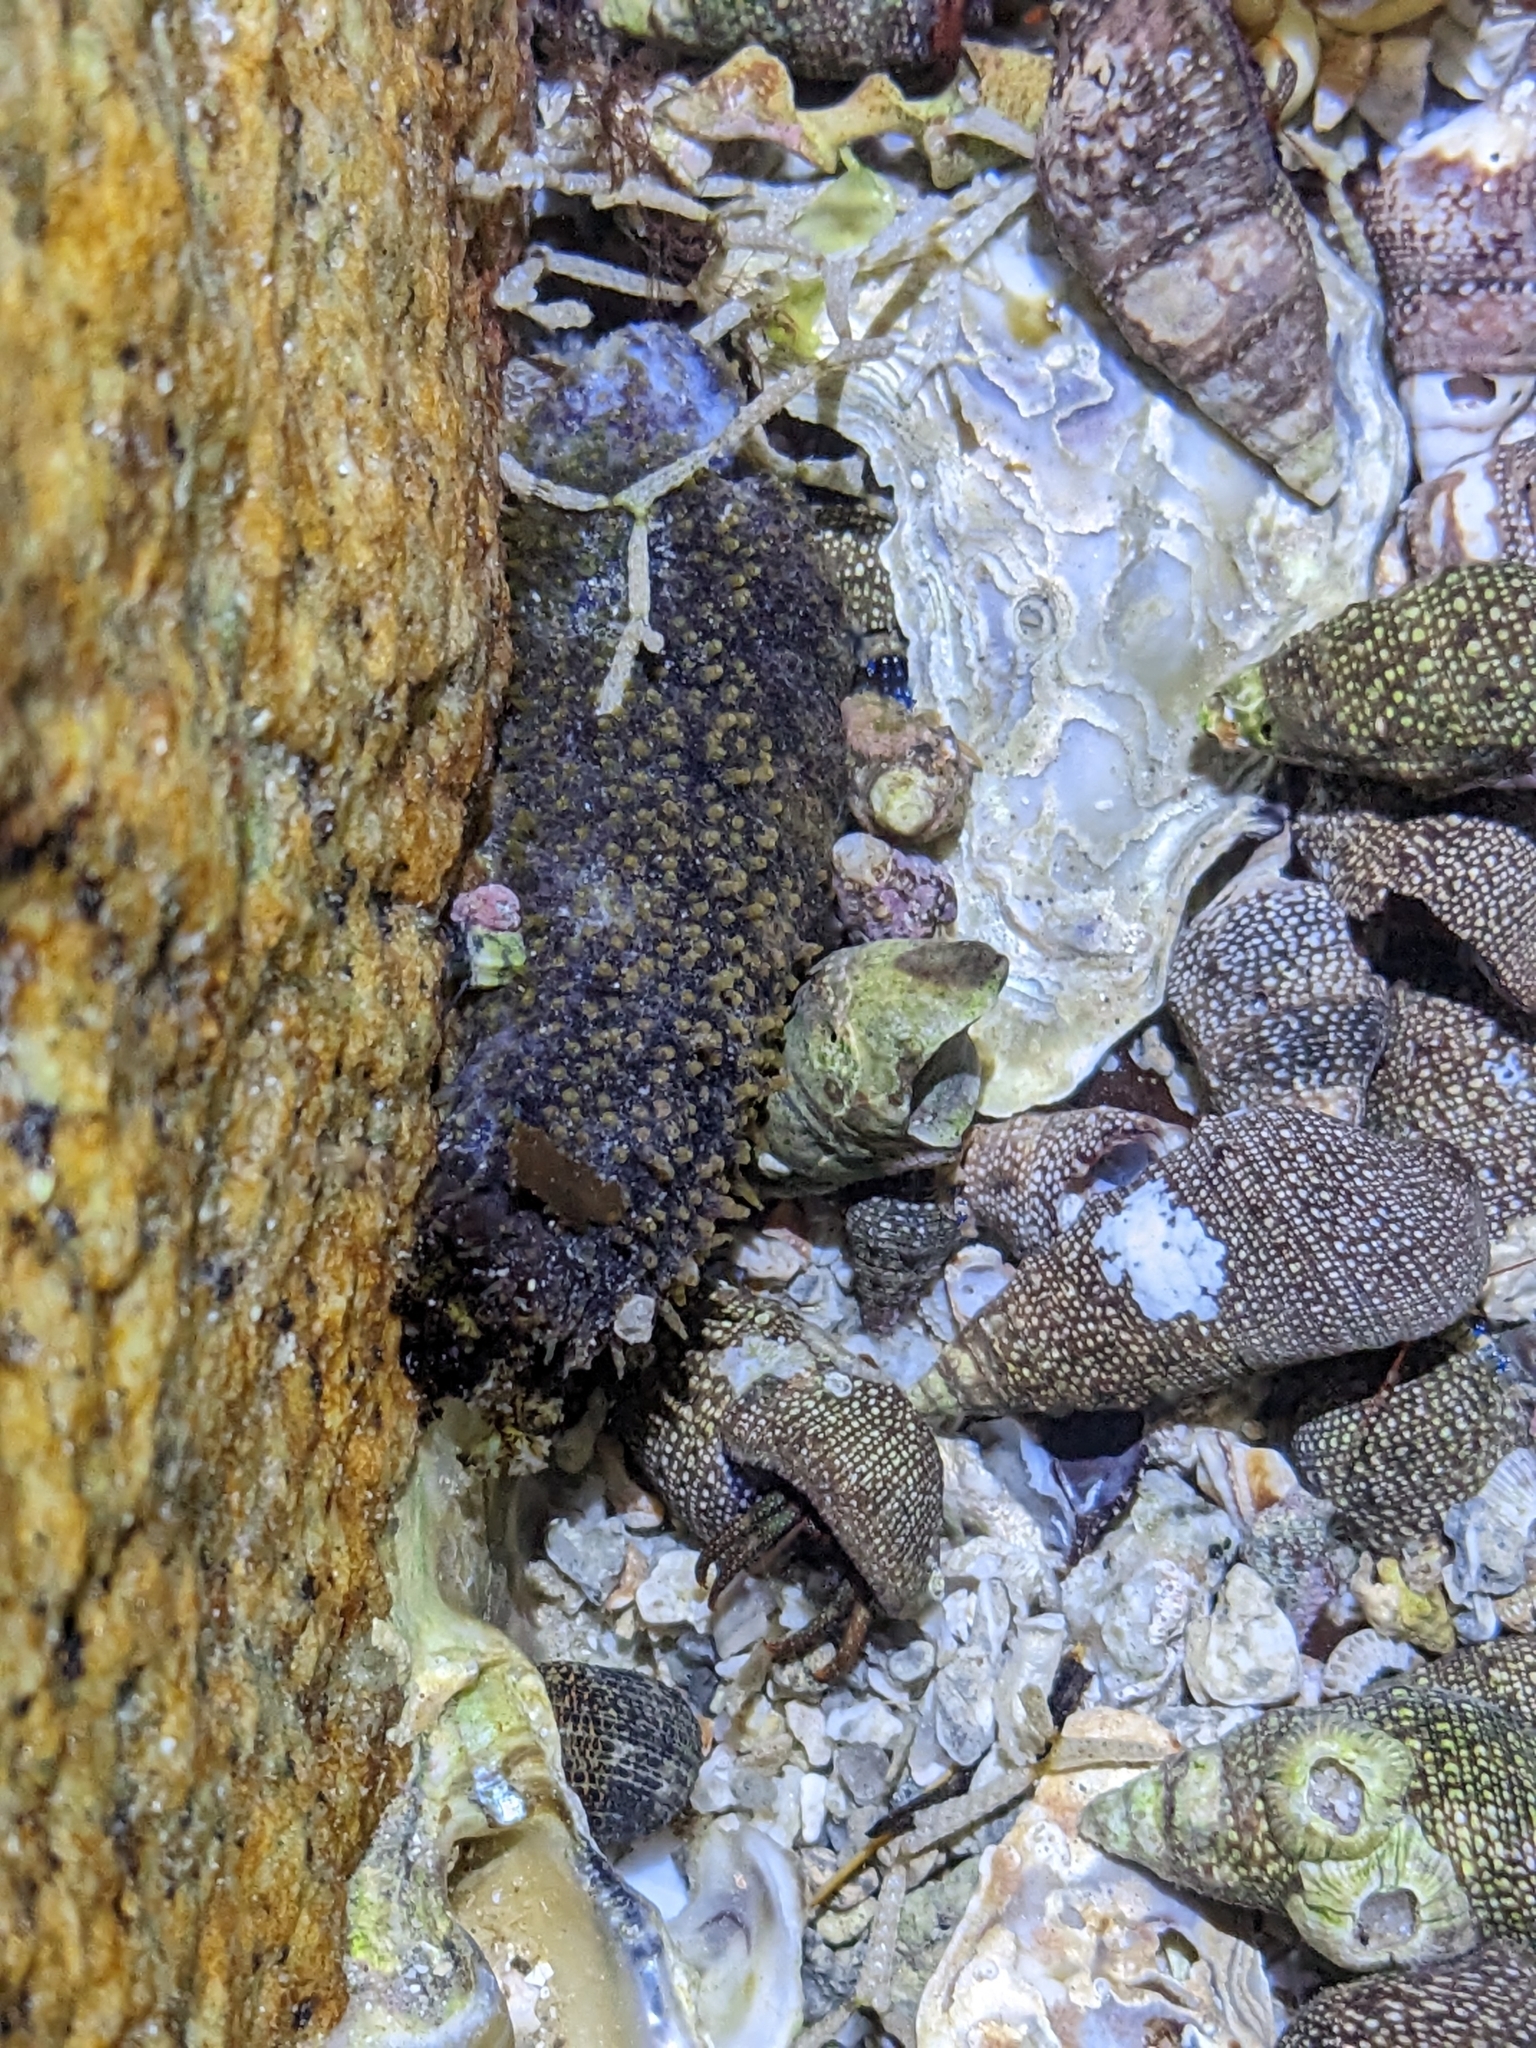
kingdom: Animalia
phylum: Echinodermata
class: Holothuroidea
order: Holothuriida
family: Holothuriidae
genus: Holothuria
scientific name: Holothuria lubrica
